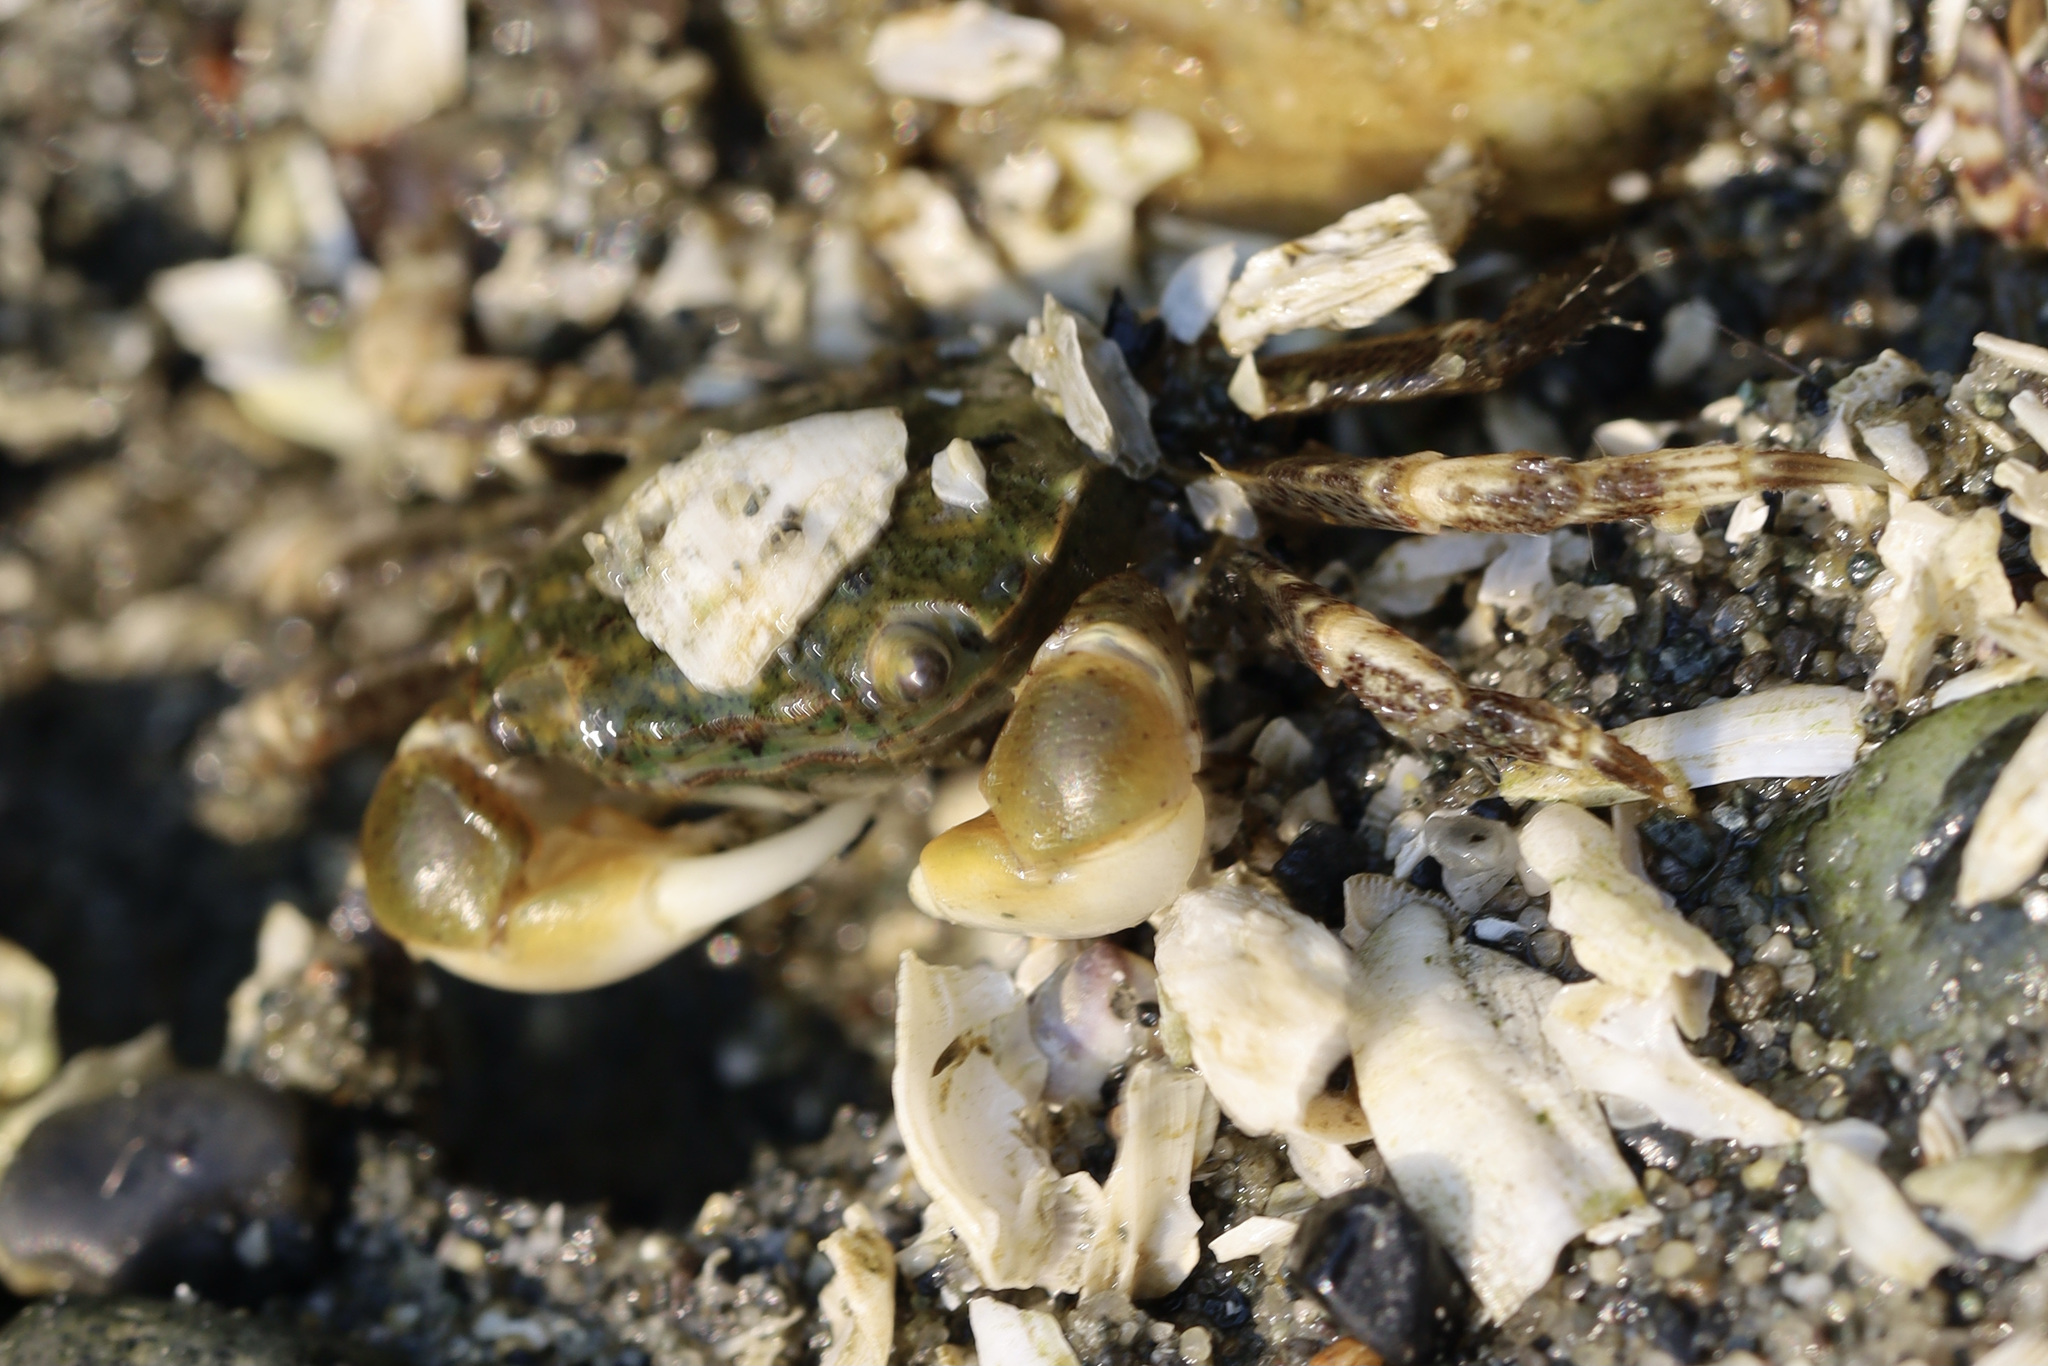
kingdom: Animalia
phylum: Arthropoda
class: Malacostraca
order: Decapoda
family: Varunidae
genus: Hemigrapsus
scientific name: Hemigrapsus oregonensis
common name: Yellow shore crab
